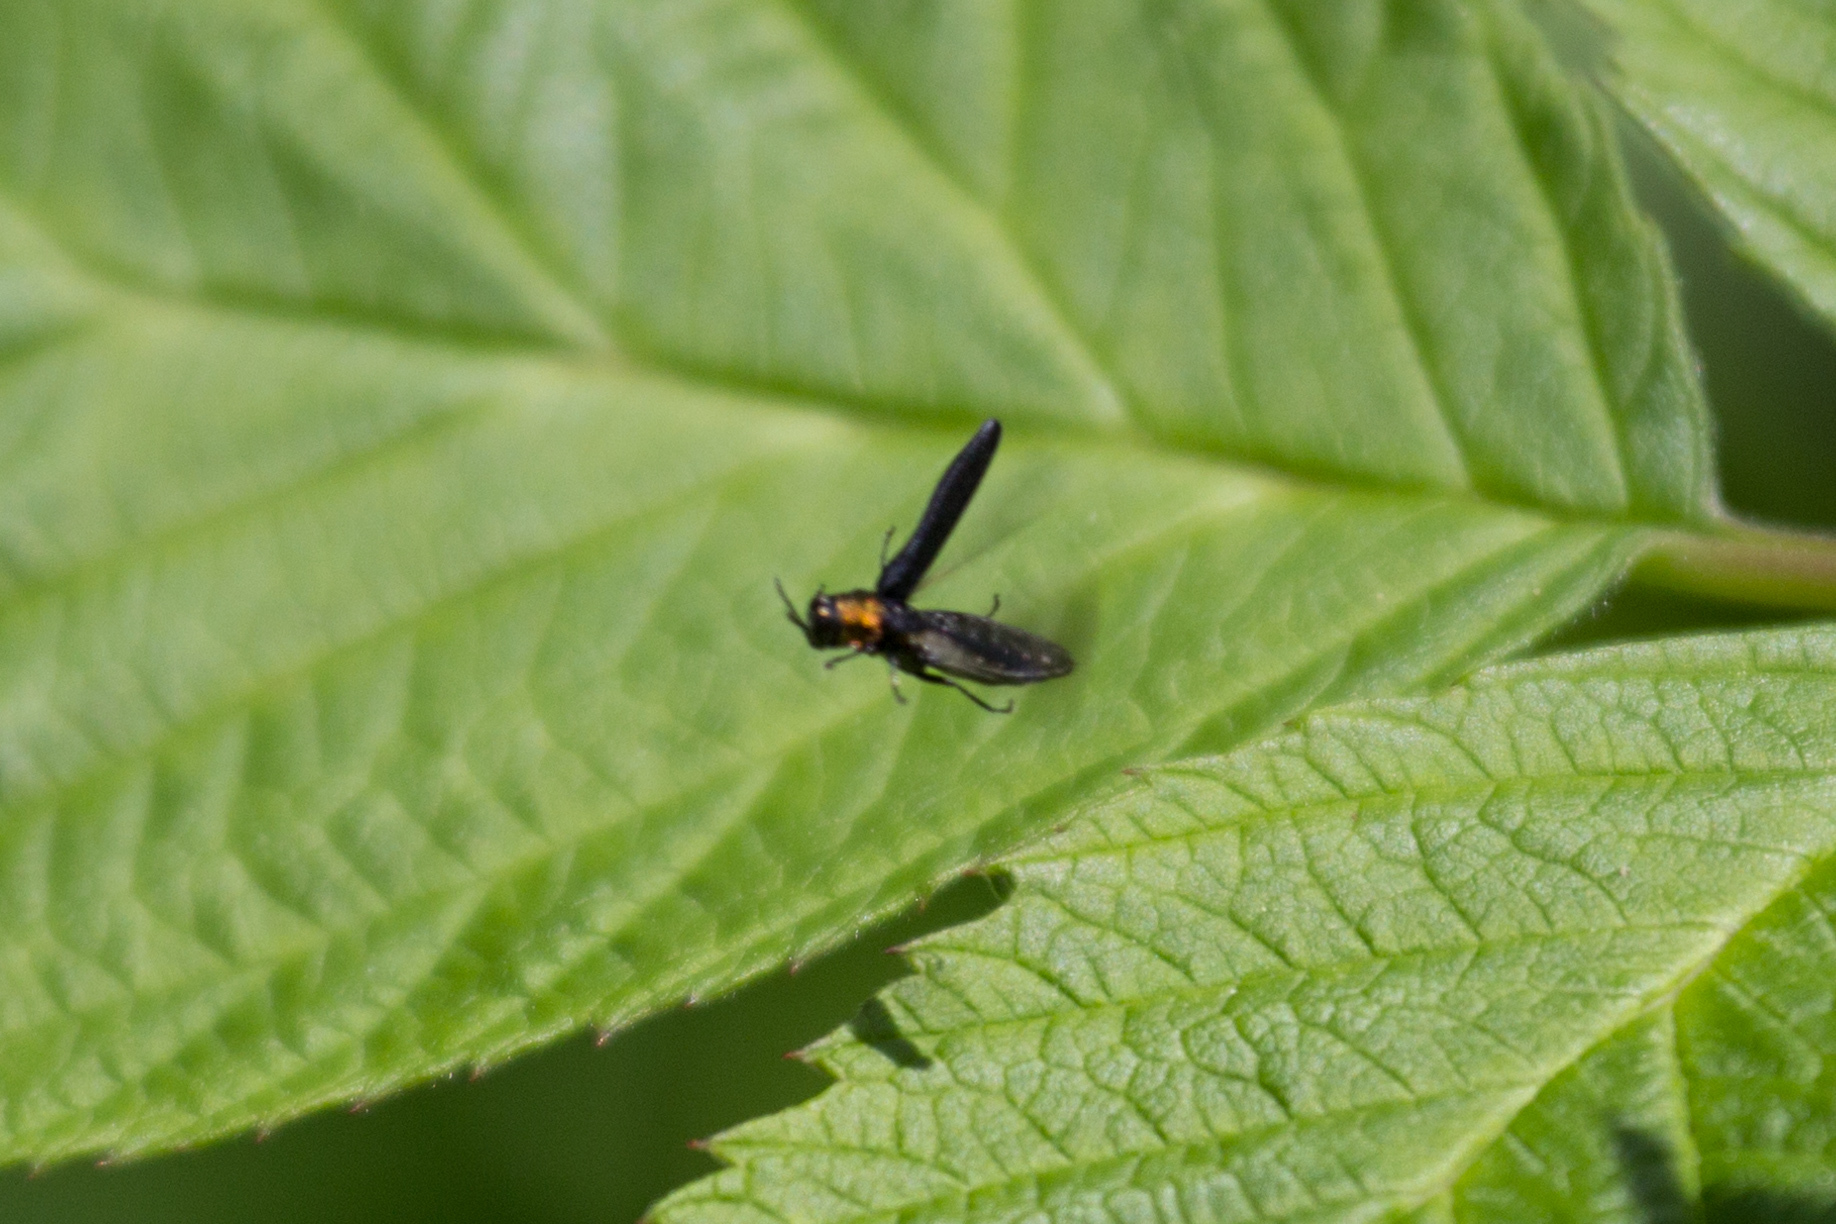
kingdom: Animalia
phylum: Arthropoda
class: Insecta
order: Coleoptera
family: Buprestidae
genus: Agrilus
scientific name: Agrilus ruficollis
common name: Red-necked cane borer beetle
